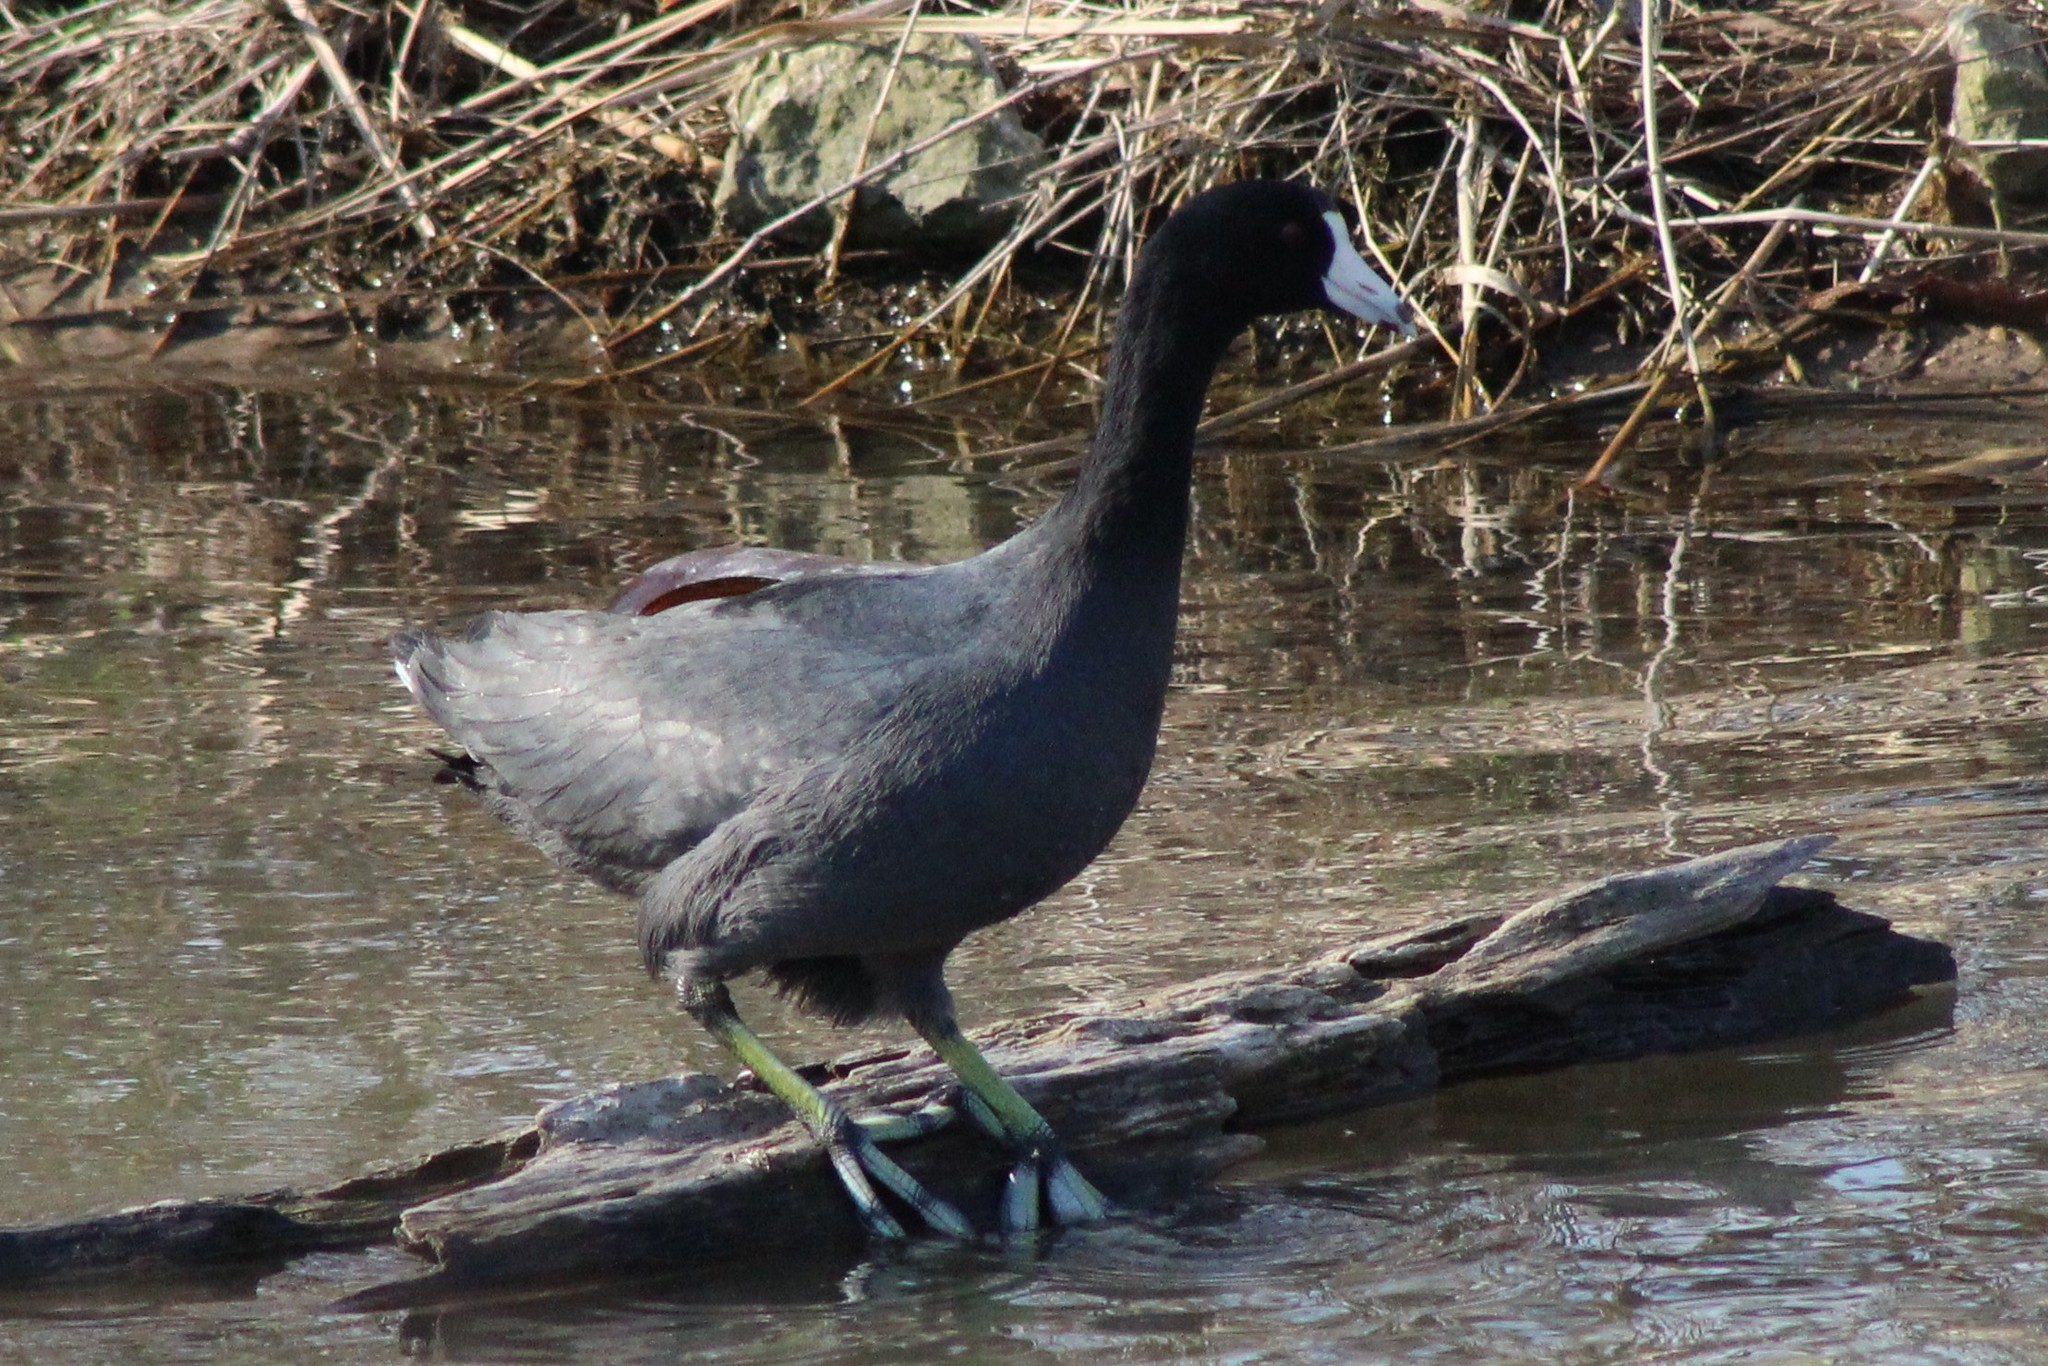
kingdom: Animalia
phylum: Chordata
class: Aves
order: Gruiformes
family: Rallidae
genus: Fulica
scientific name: Fulica americana
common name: American coot
